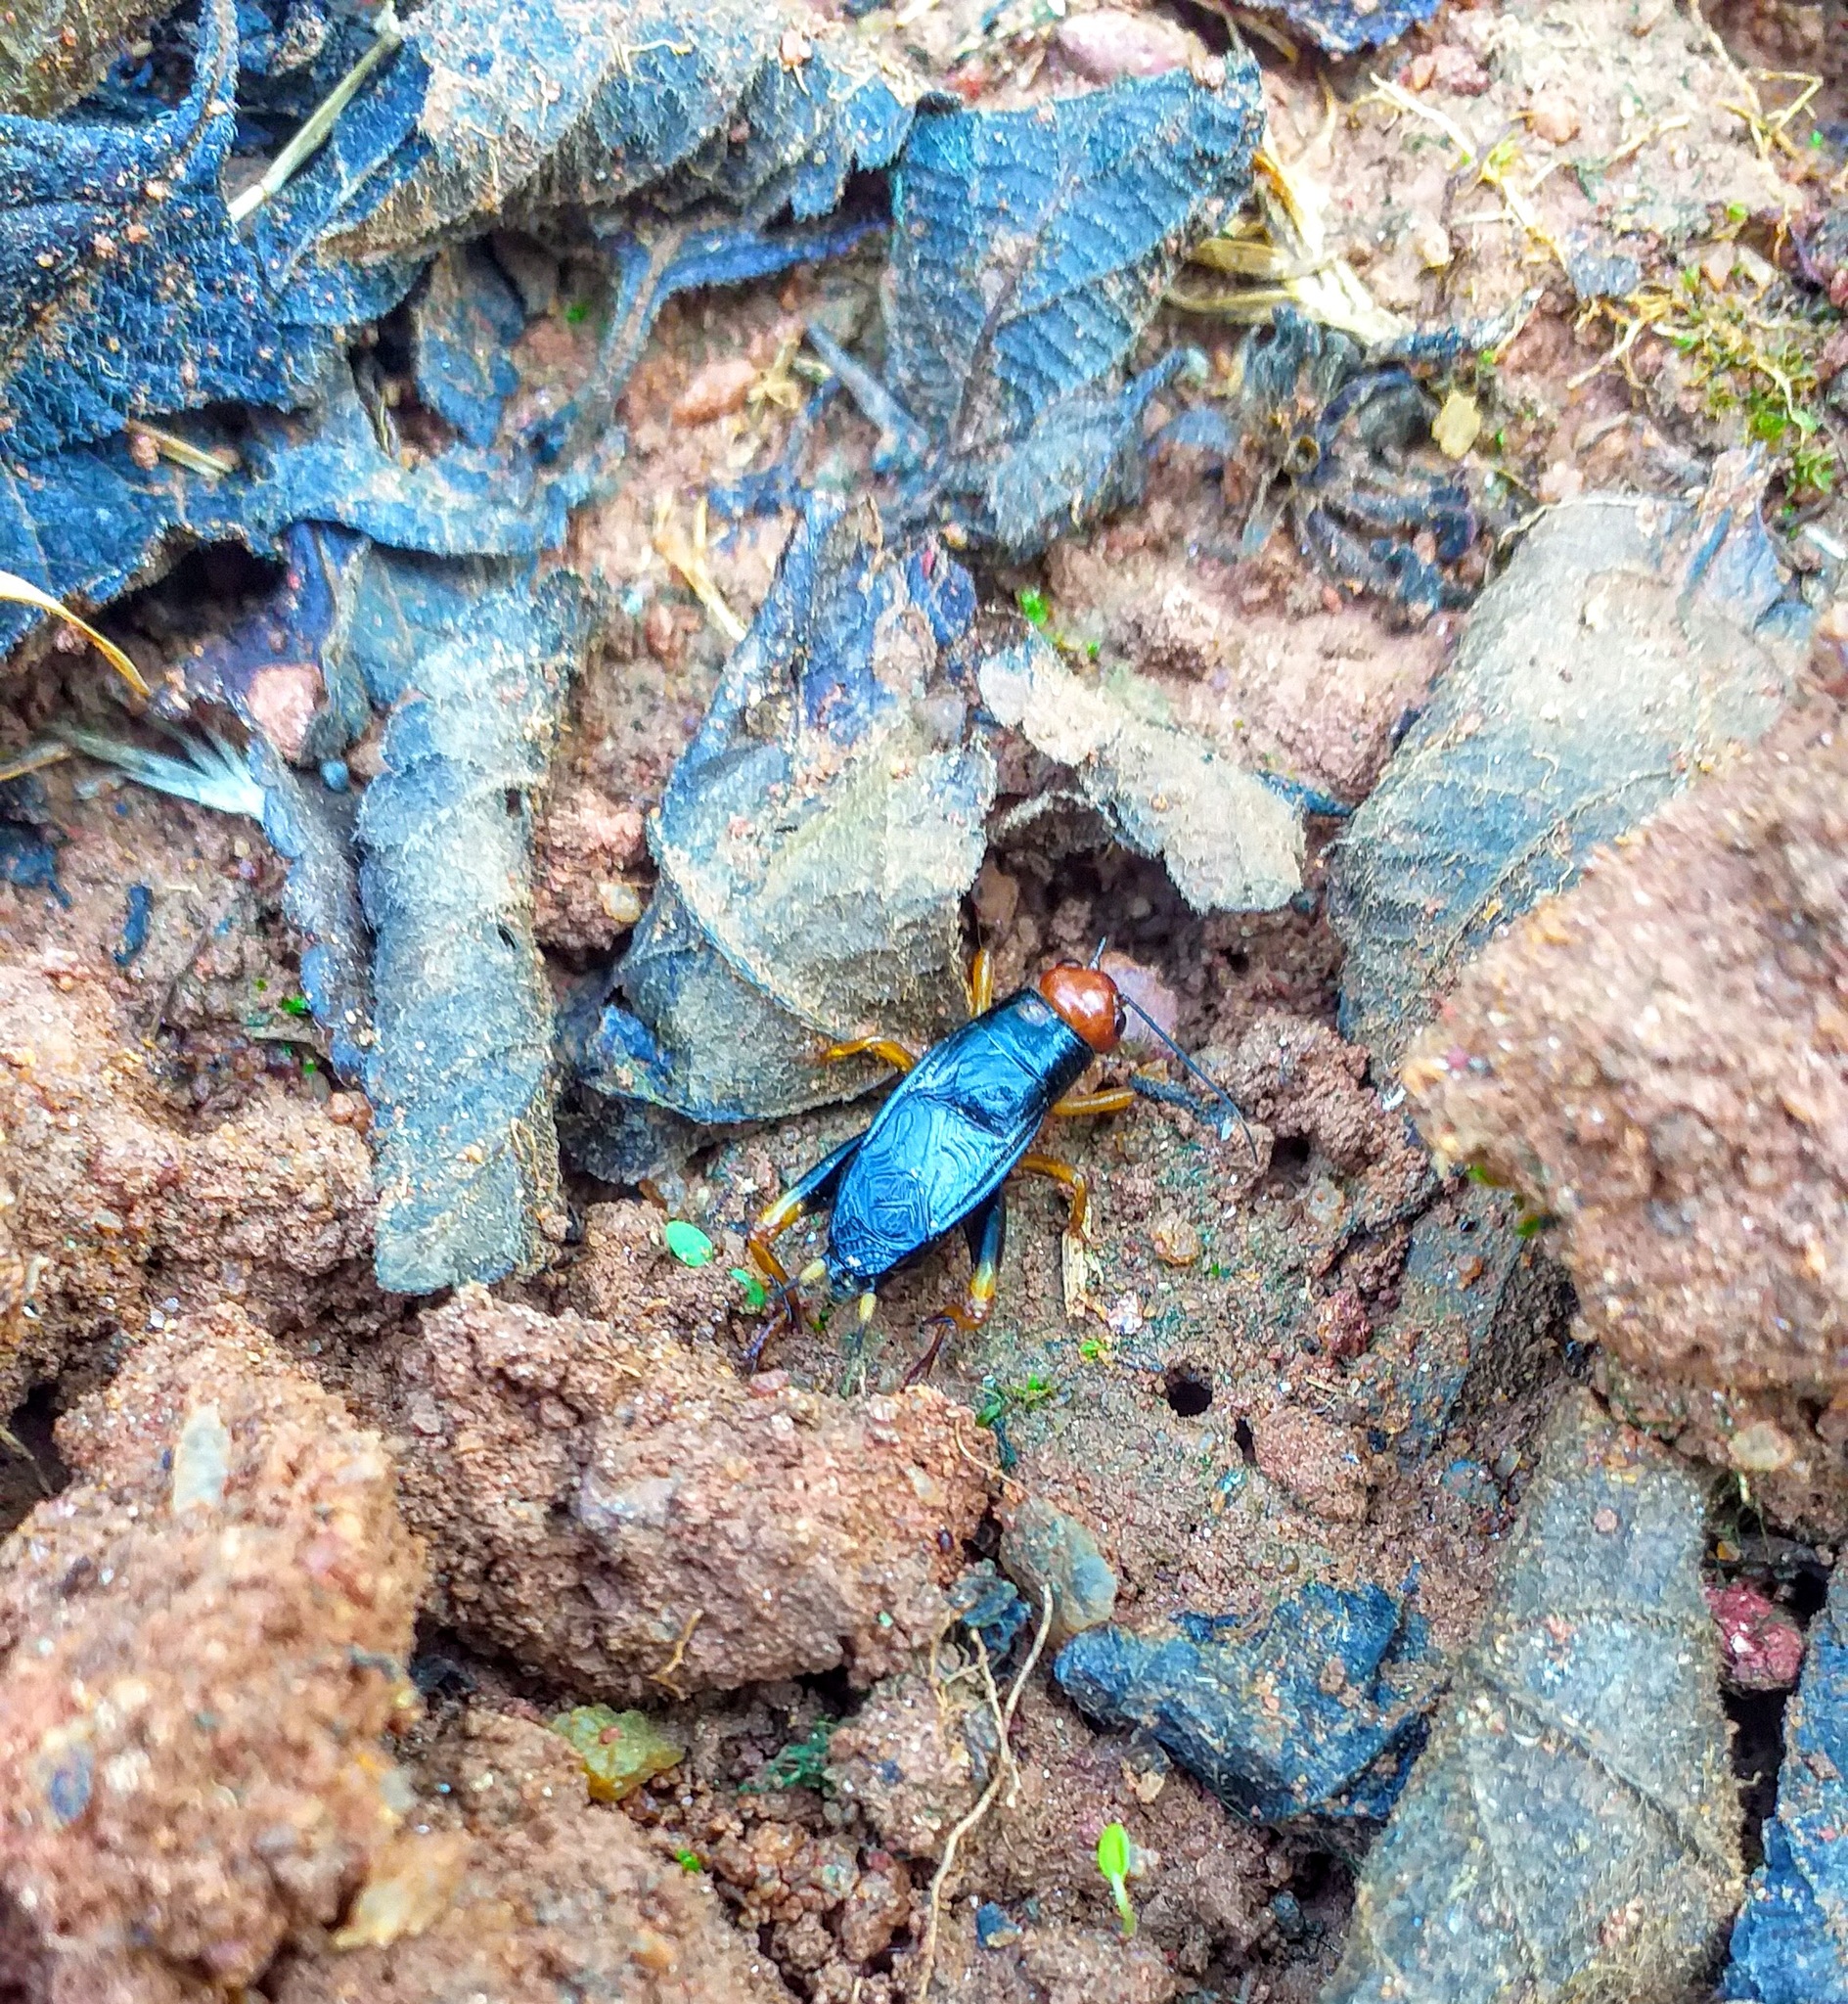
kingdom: Animalia
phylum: Arthropoda
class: Insecta
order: Orthoptera
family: Gryllidae
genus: Phonarellus
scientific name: Phonarellus minor
